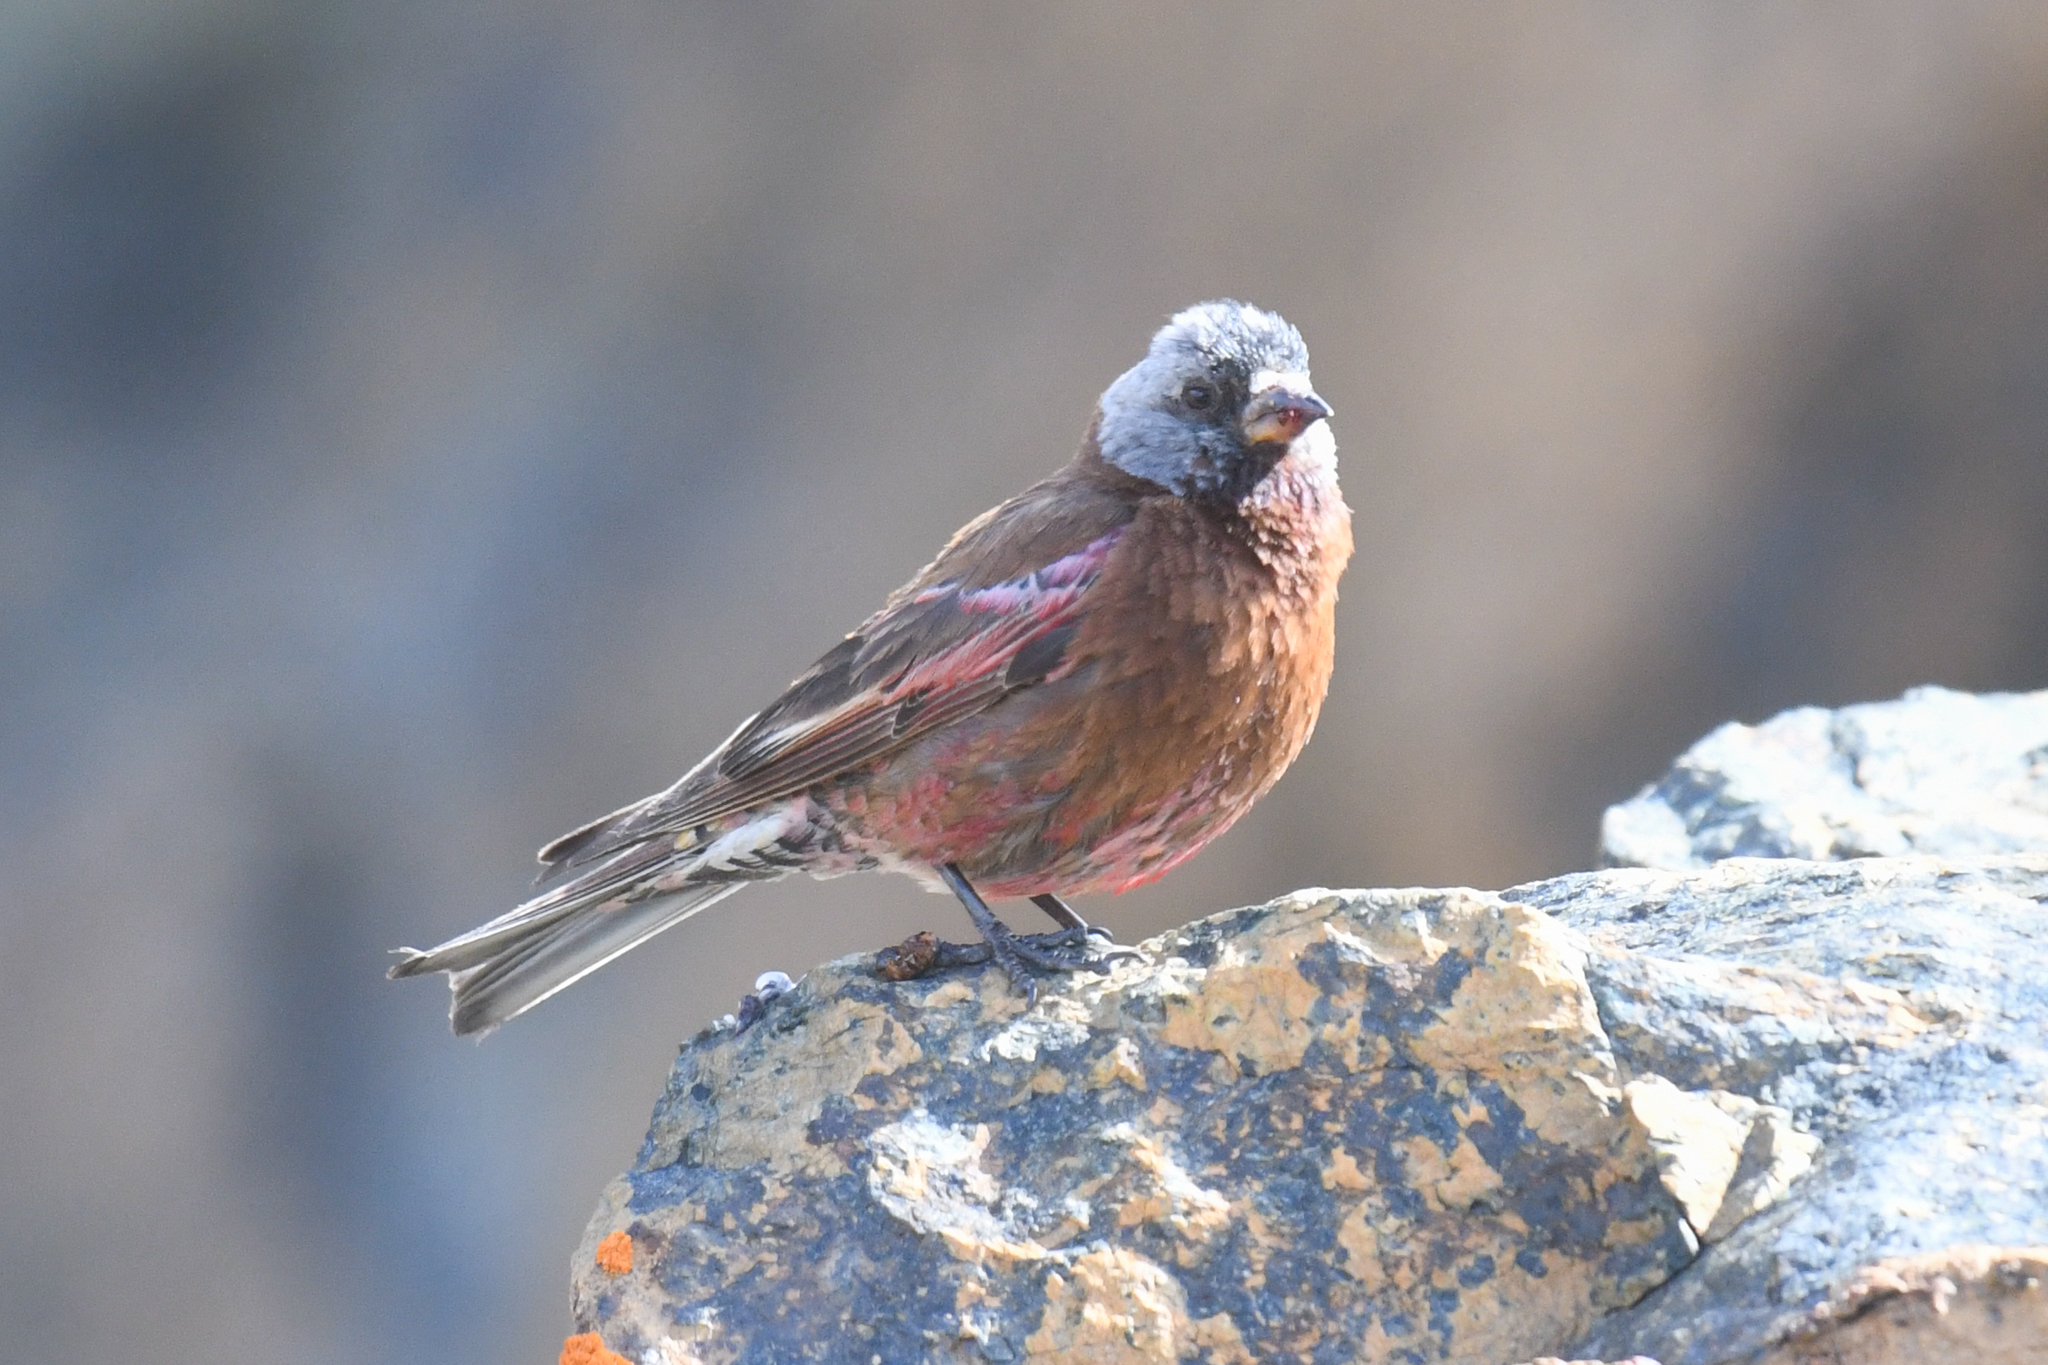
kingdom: Animalia
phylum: Chordata
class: Aves
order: Passeriformes
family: Fringillidae
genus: Leucosticte
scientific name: Leucosticte tephrocotis
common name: Gray-crowned rosy-finch
